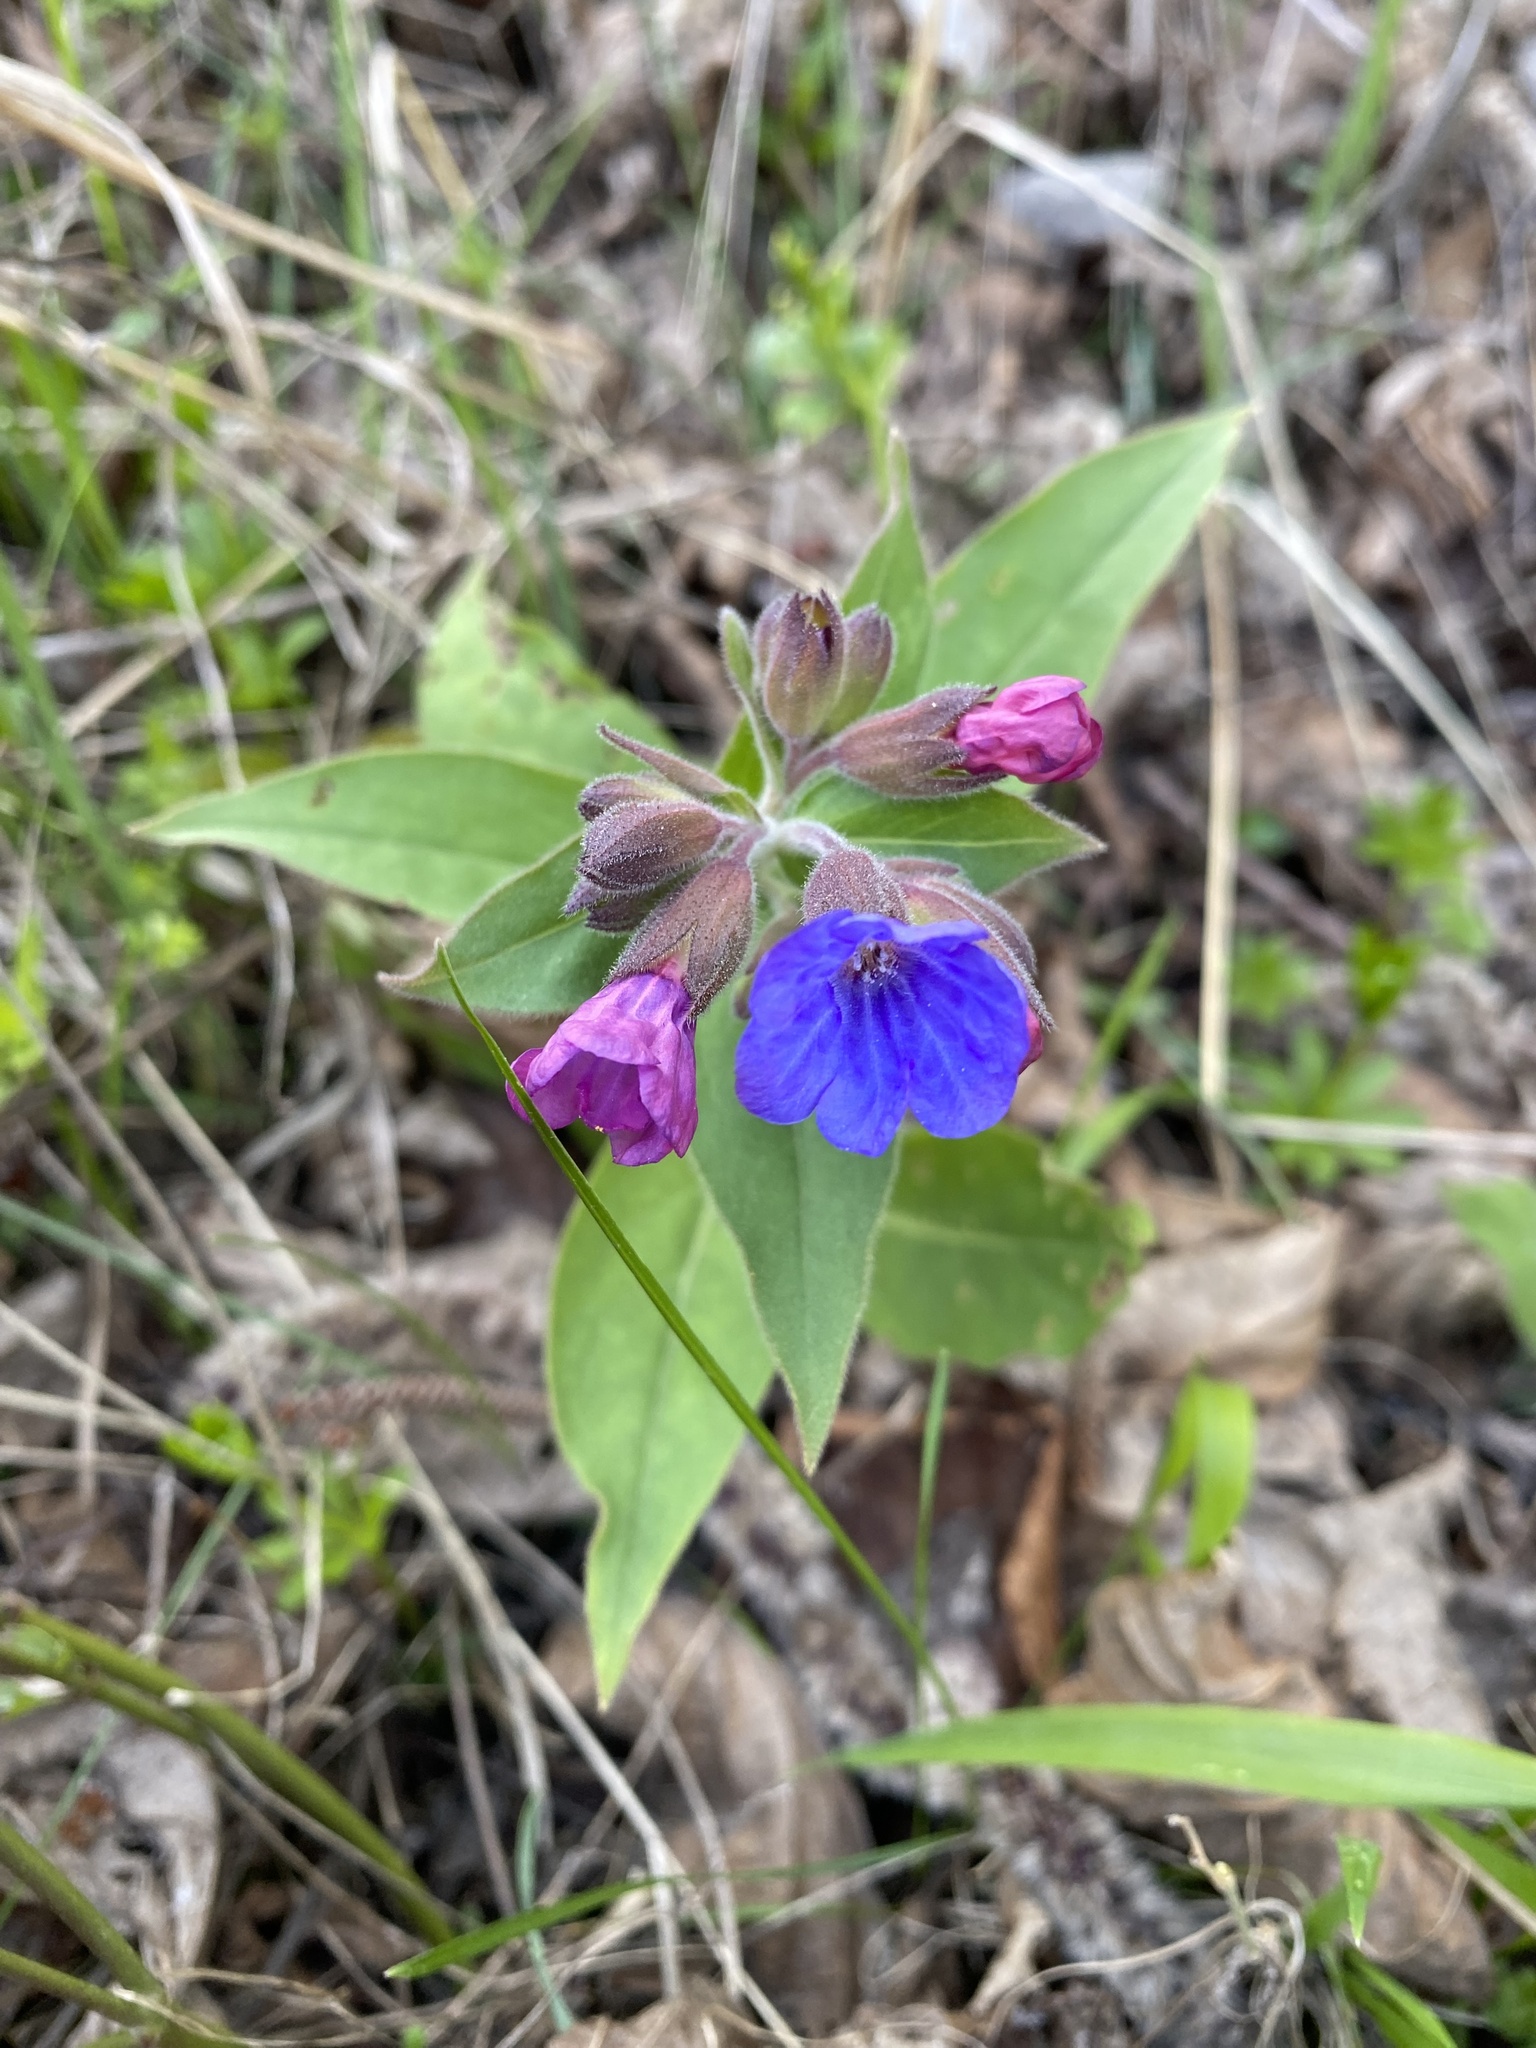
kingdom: Plantae
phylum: Tracheophyta
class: Magnoliopsida
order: Boraginales
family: Boraginaceae
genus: Pulmonaria
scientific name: Pulmonaria mollis
